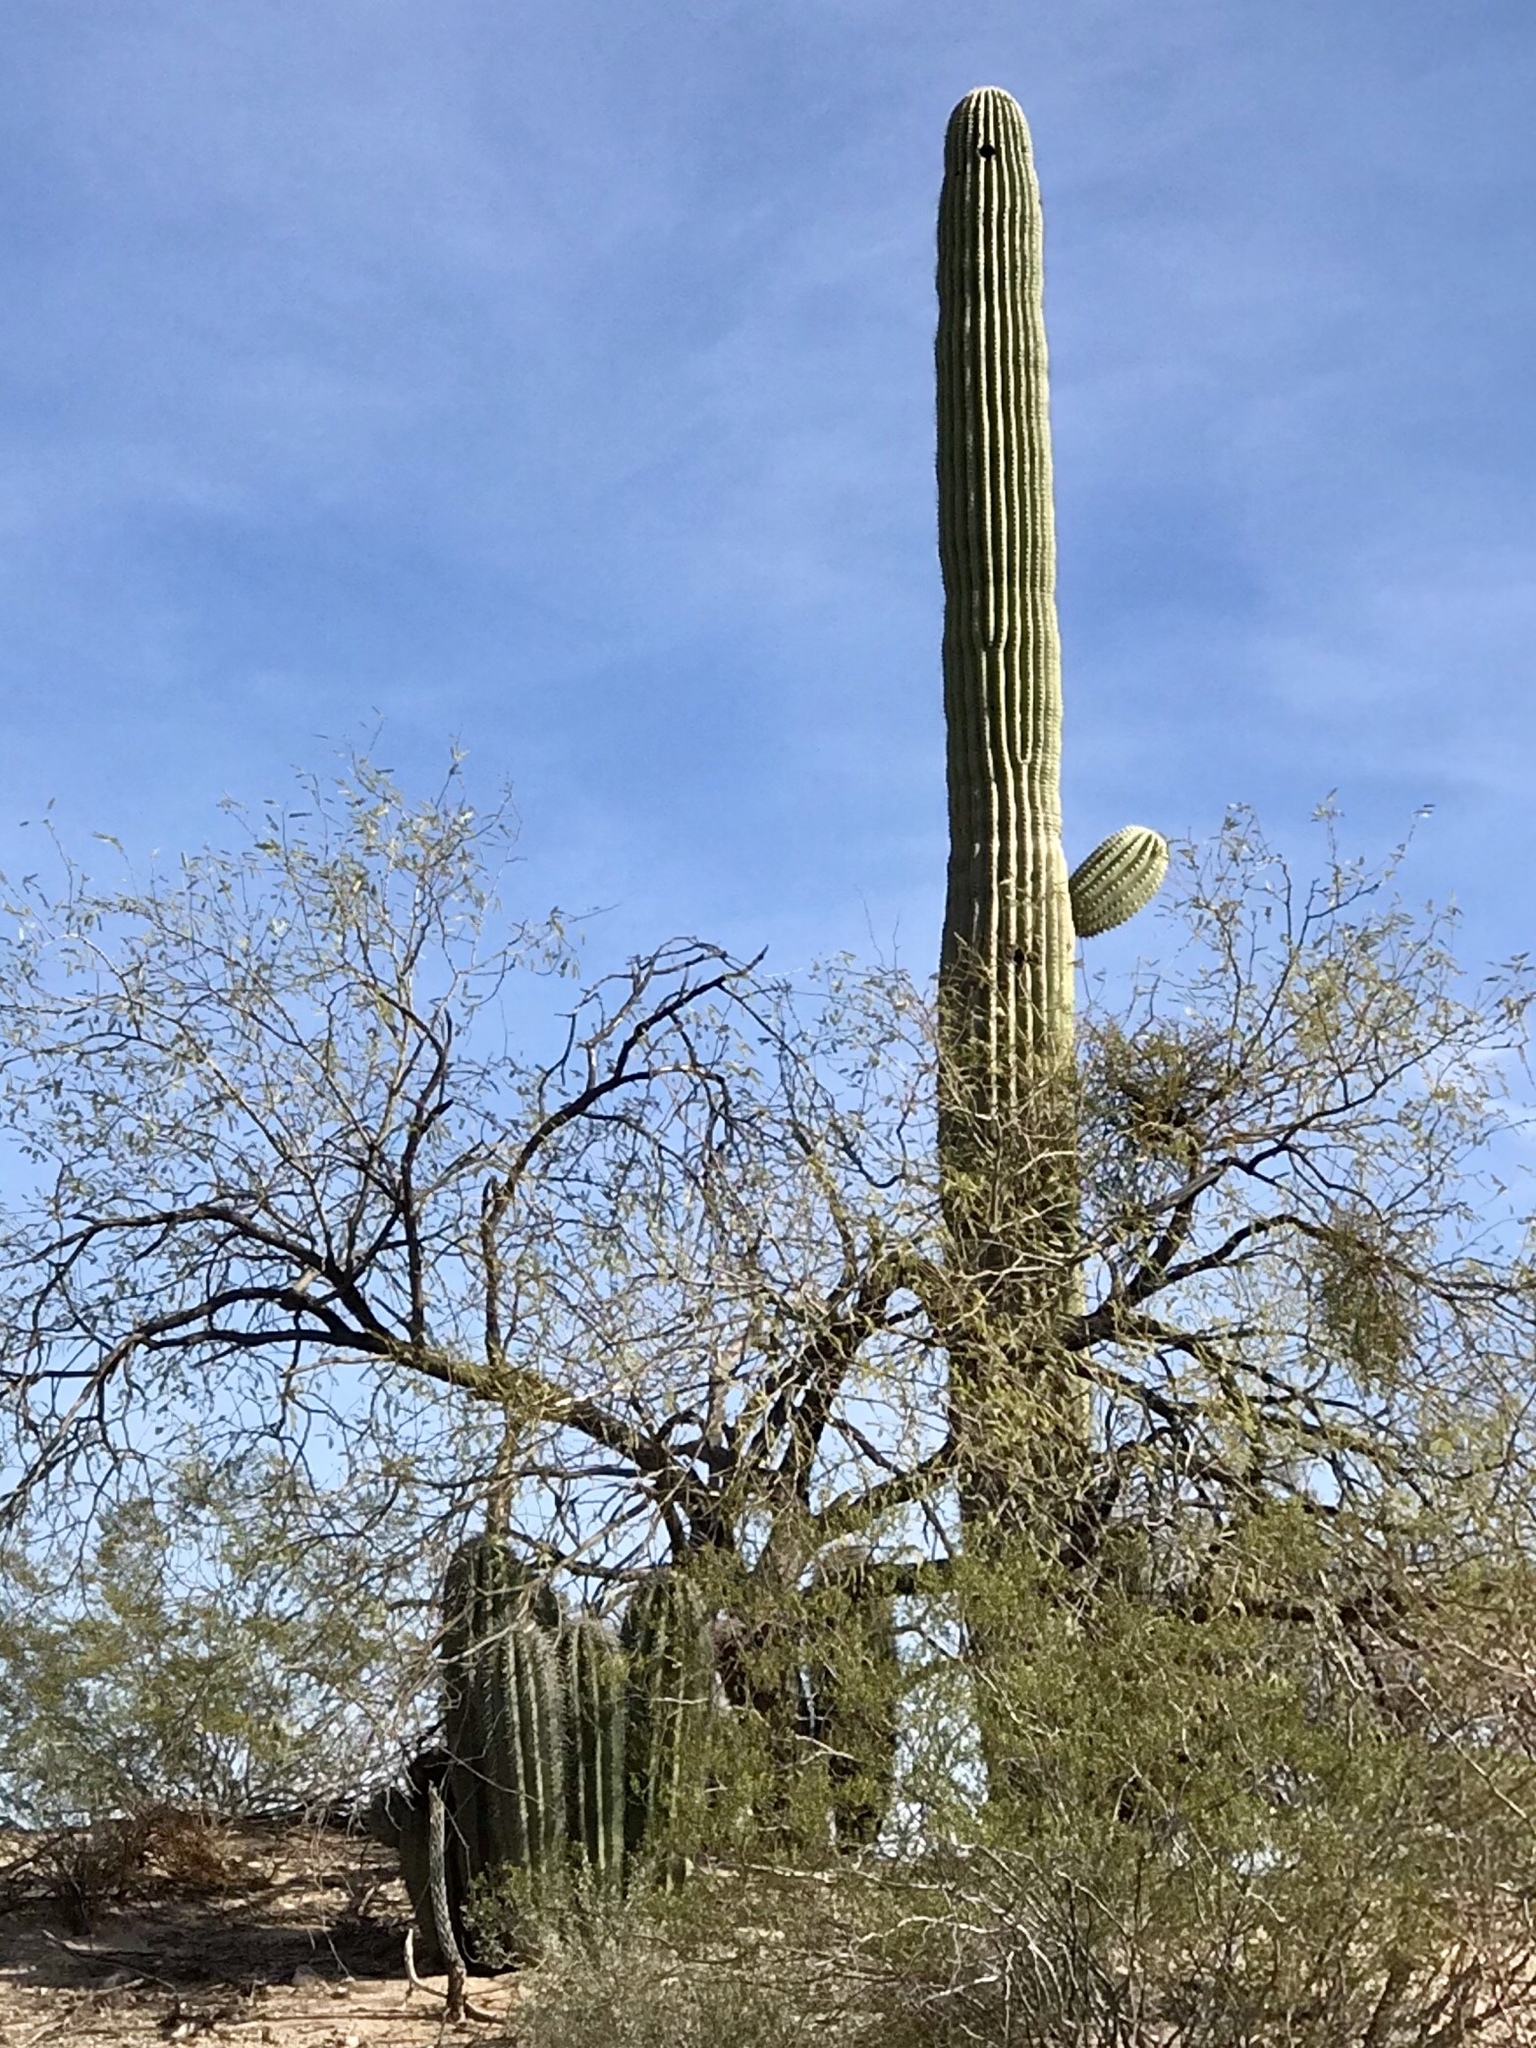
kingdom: Plantae
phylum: Tracheophyta
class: Magnoliopsida
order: Caryophyllales
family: Cactaceae
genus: Carnegiea
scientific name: Carnegiea gigantea
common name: Saguaro
